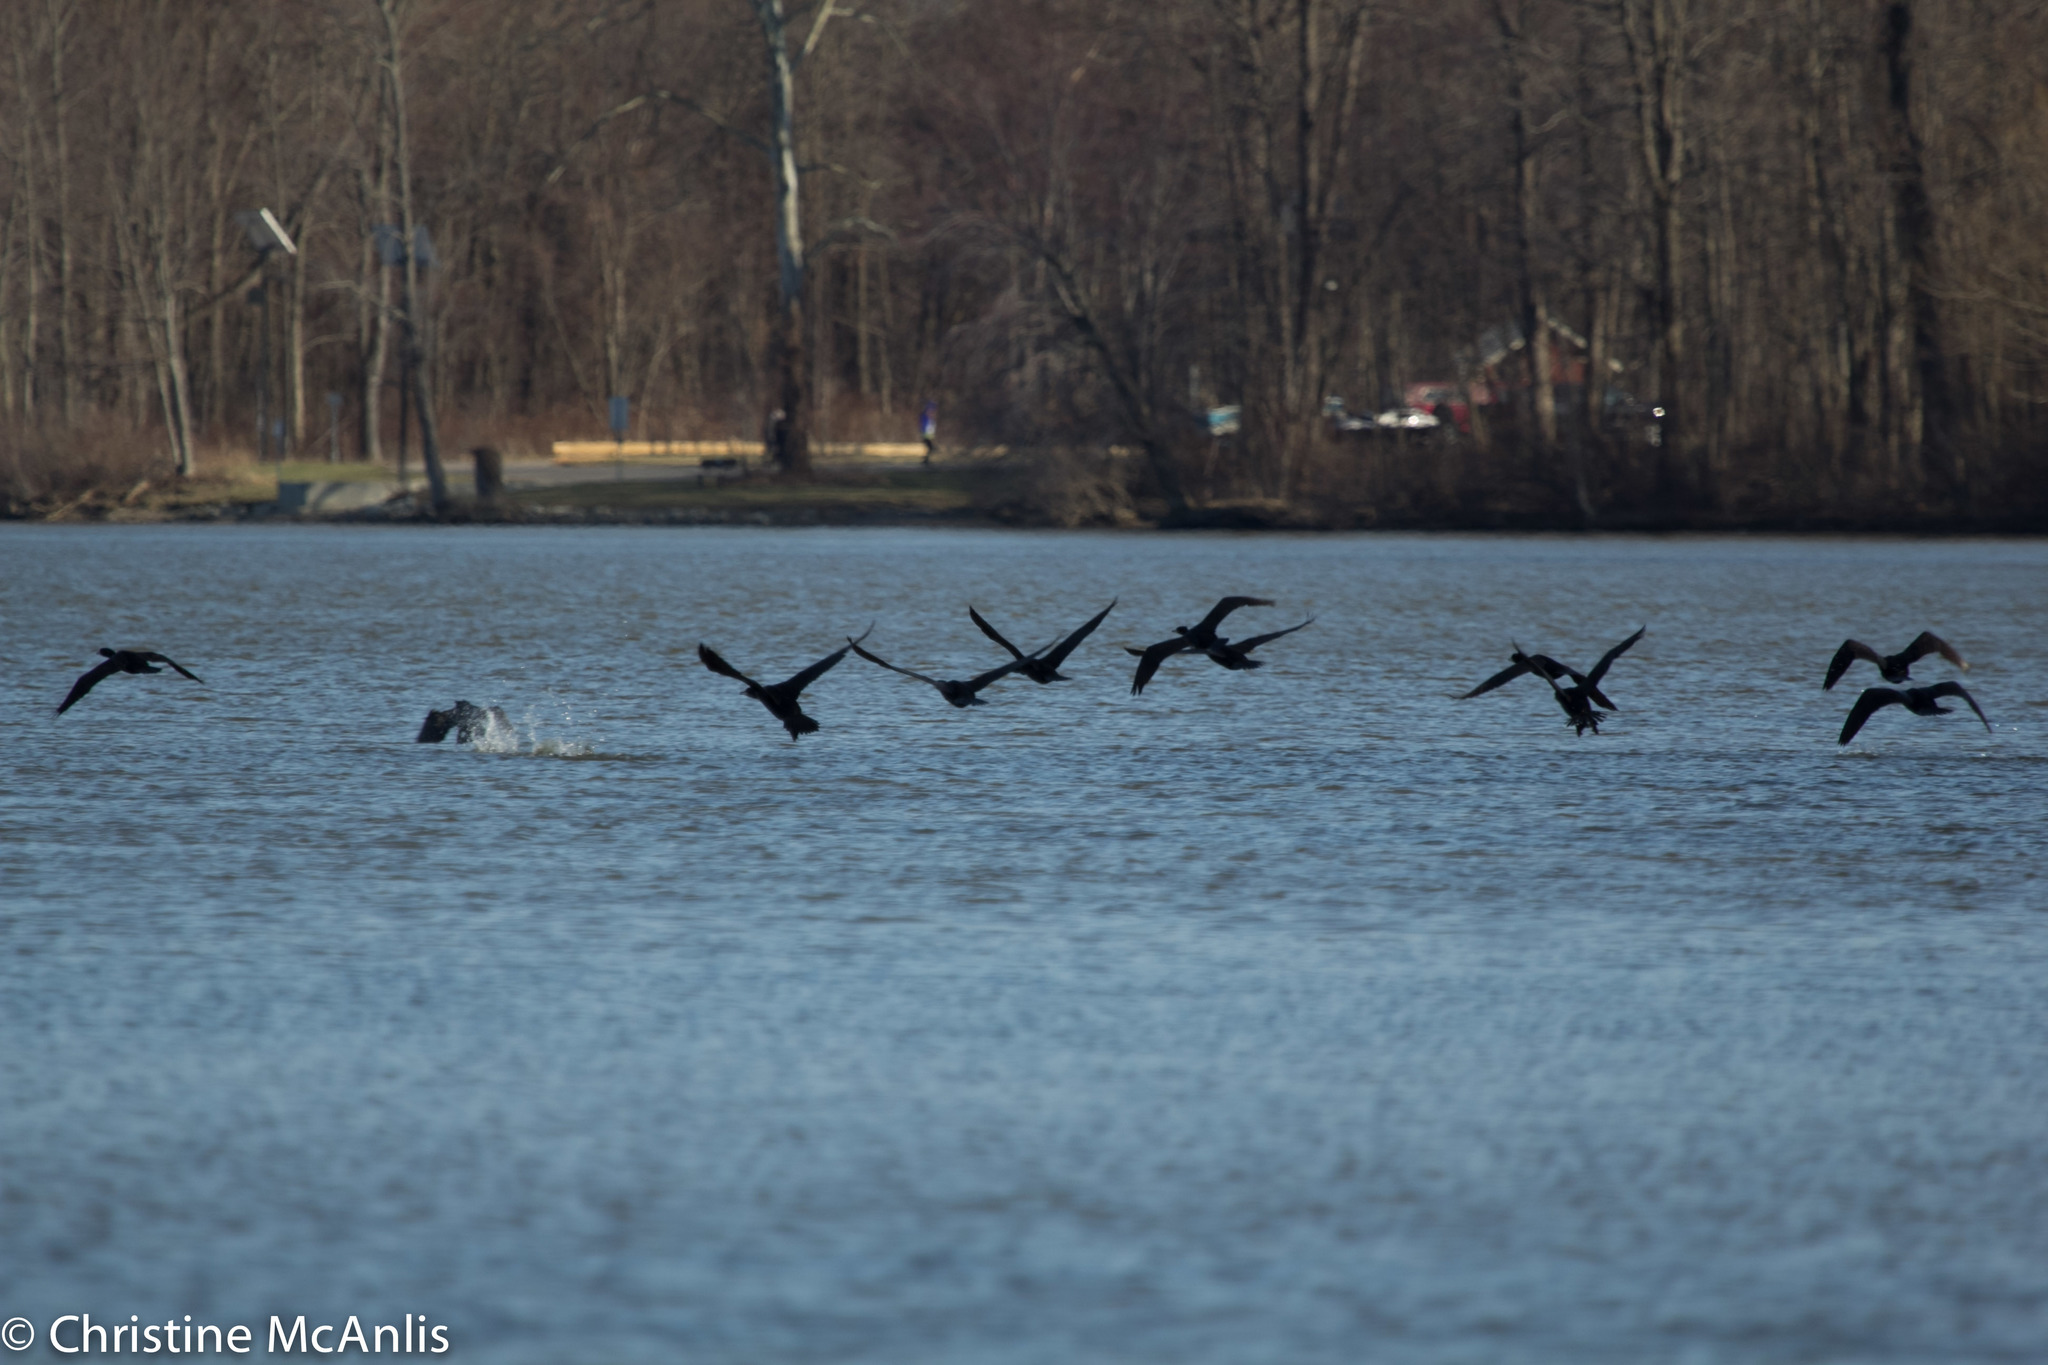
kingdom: Animalia
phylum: Chordata
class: Aves
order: Suliformes
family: Phalacrocoracidae
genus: Phalacrocorax
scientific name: Phalacrocorax auritus
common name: Double-crested cormorant
